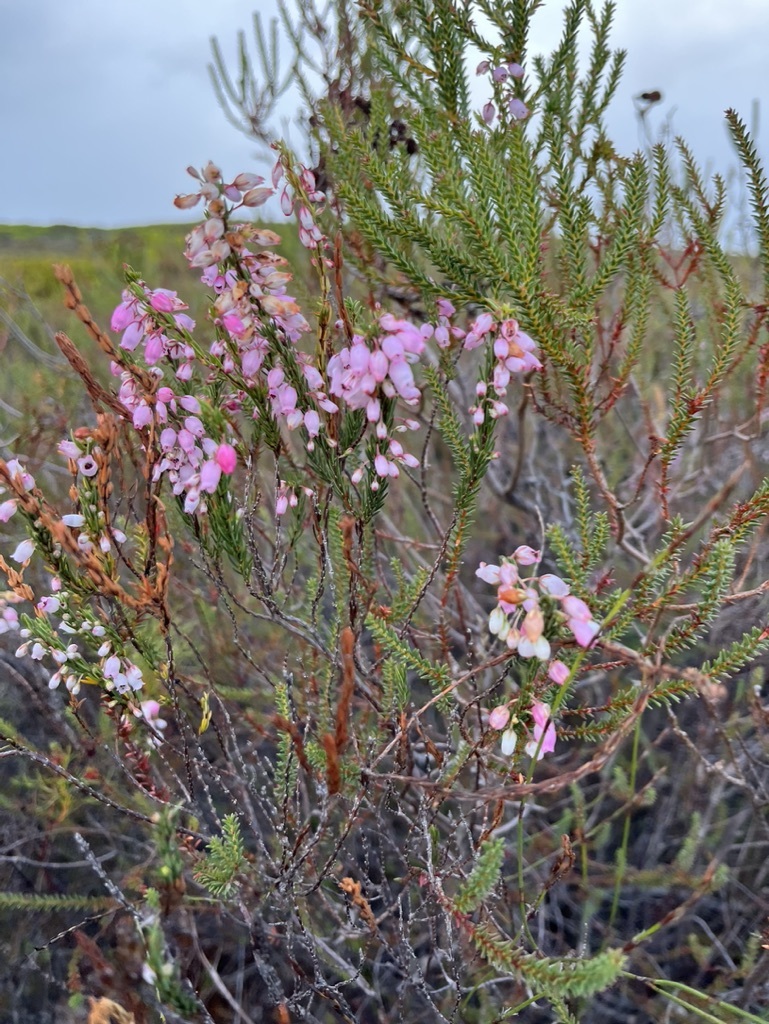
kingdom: Plantae
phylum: Tracheophyta
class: Magnoliopsida
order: Ericales
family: Ericaceae
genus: Erica
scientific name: Erica filipendula
